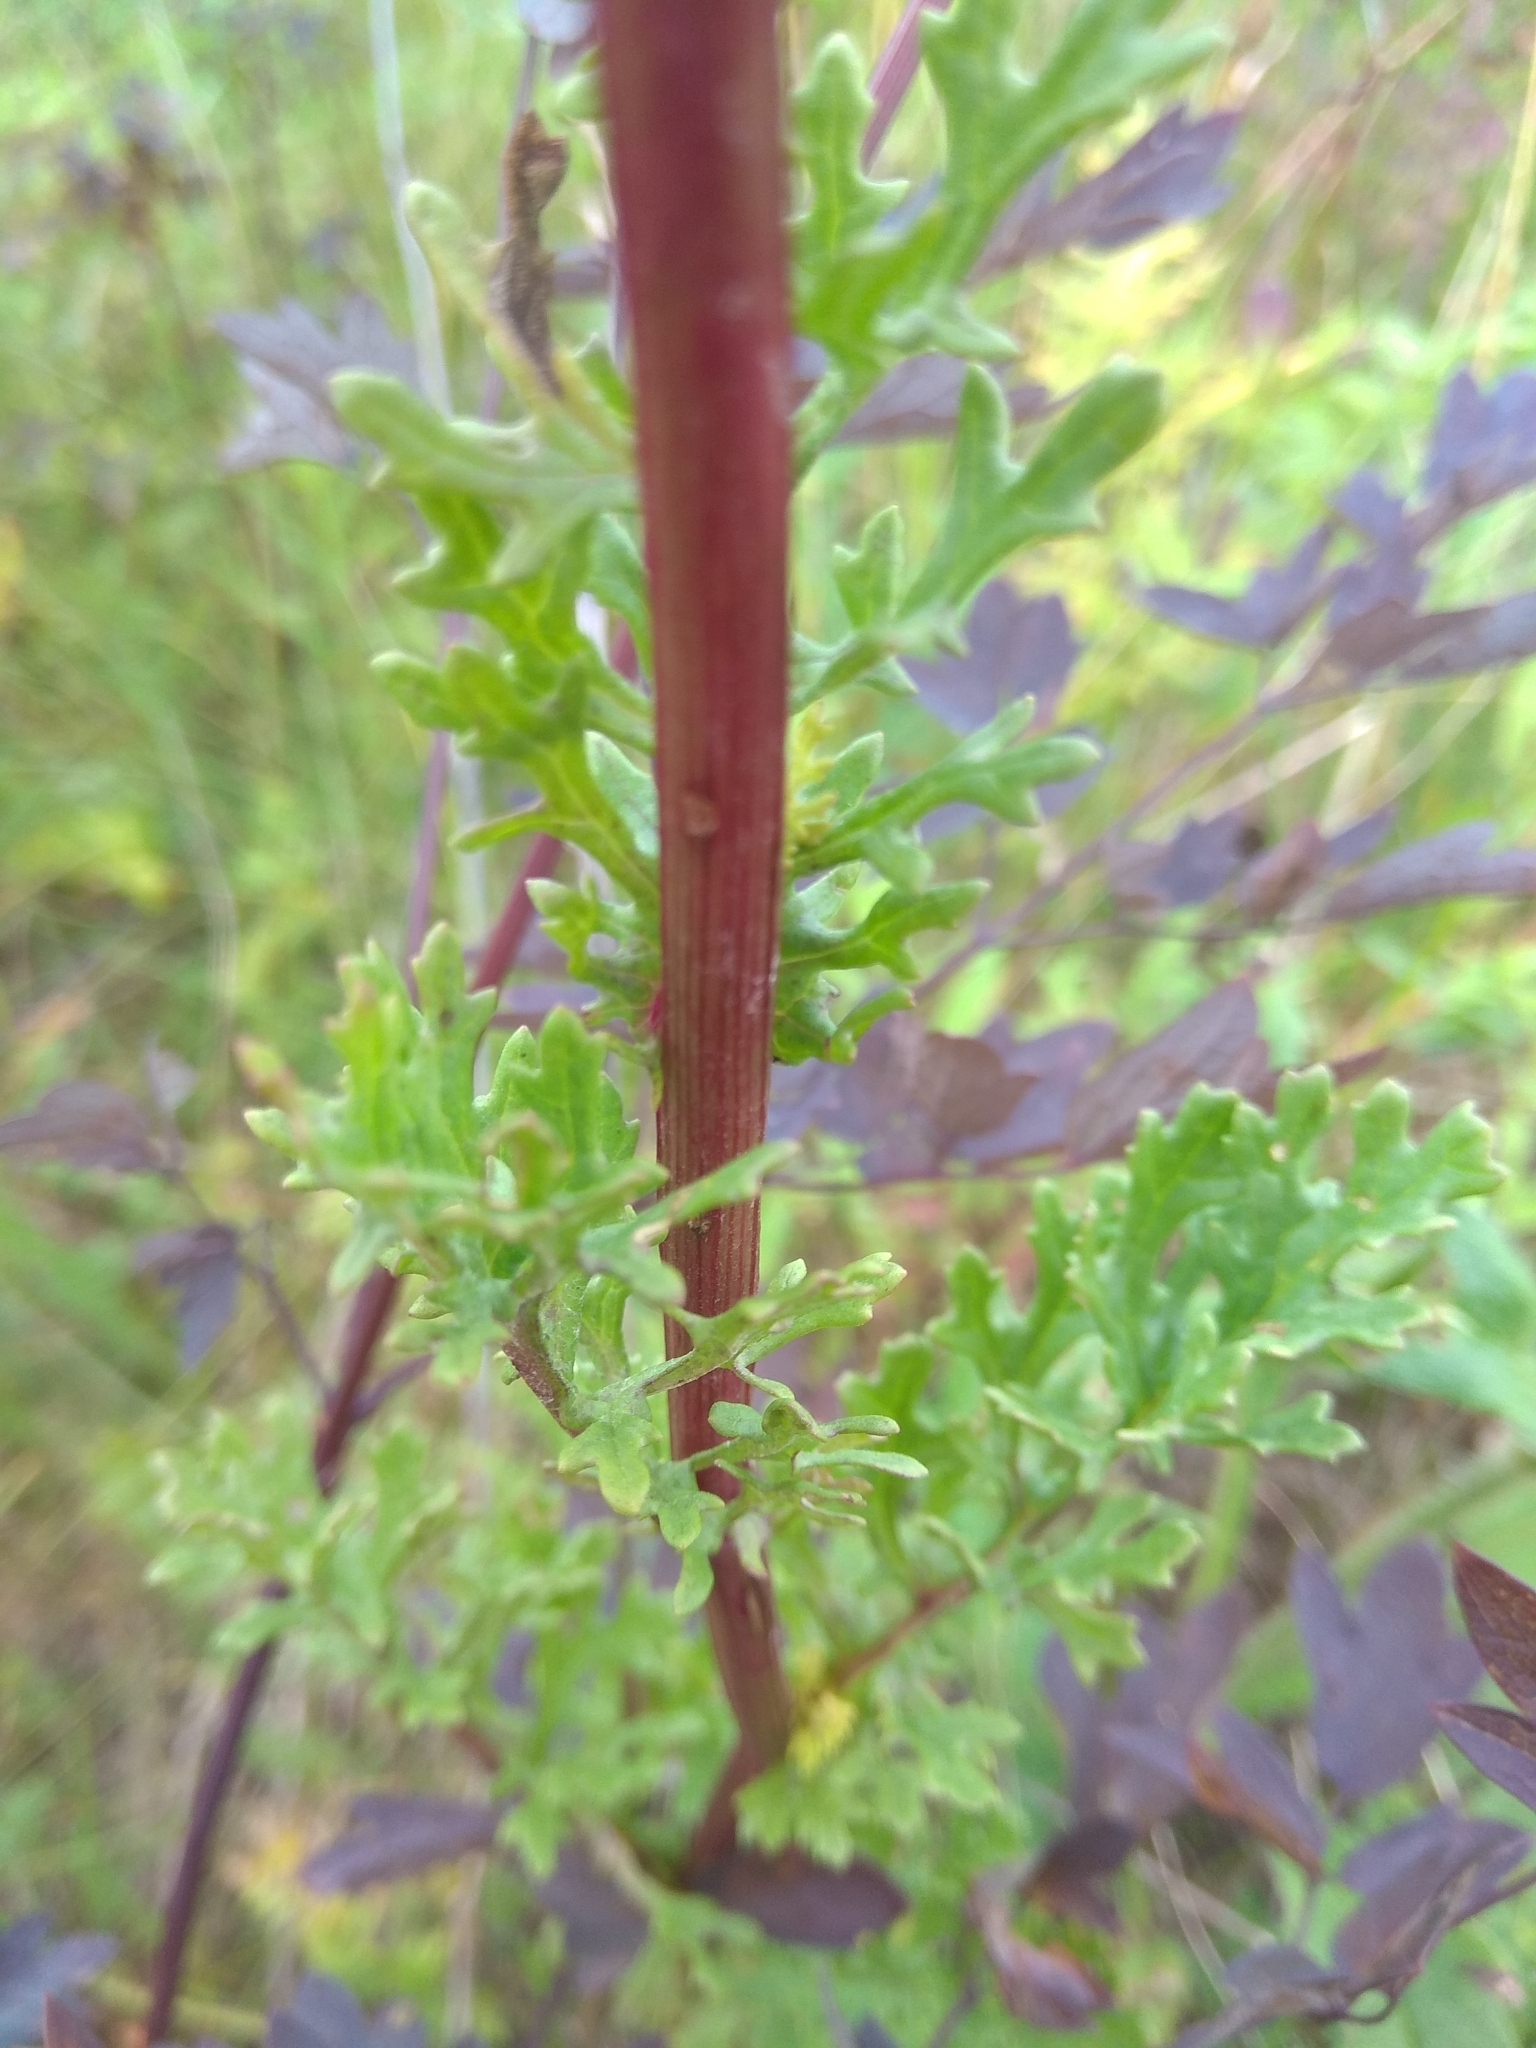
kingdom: Plantae
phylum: Tracheophyta
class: Magnoliopsida
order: Asterales
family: Asteraceae
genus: Jacobaea
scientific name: Jacobaea vulgaris
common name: Stinking willie
